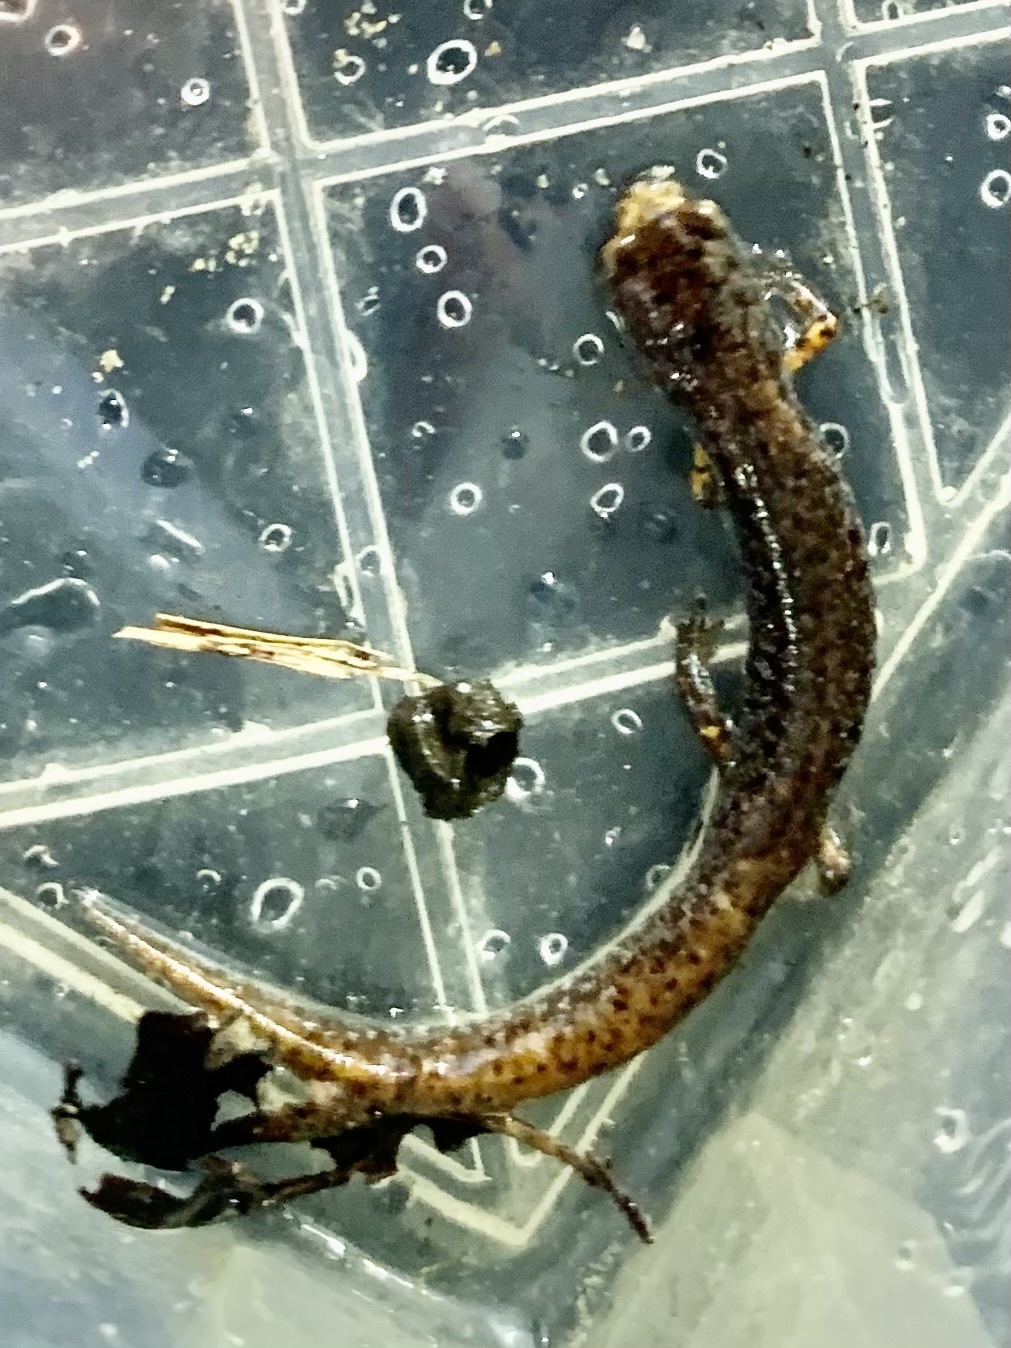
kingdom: Animalia
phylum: Chordata
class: Amphibia
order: Caudata
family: Plethodontidae
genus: Hemidactylium
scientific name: Hemidactylium scutatum
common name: Four-toed salamander
